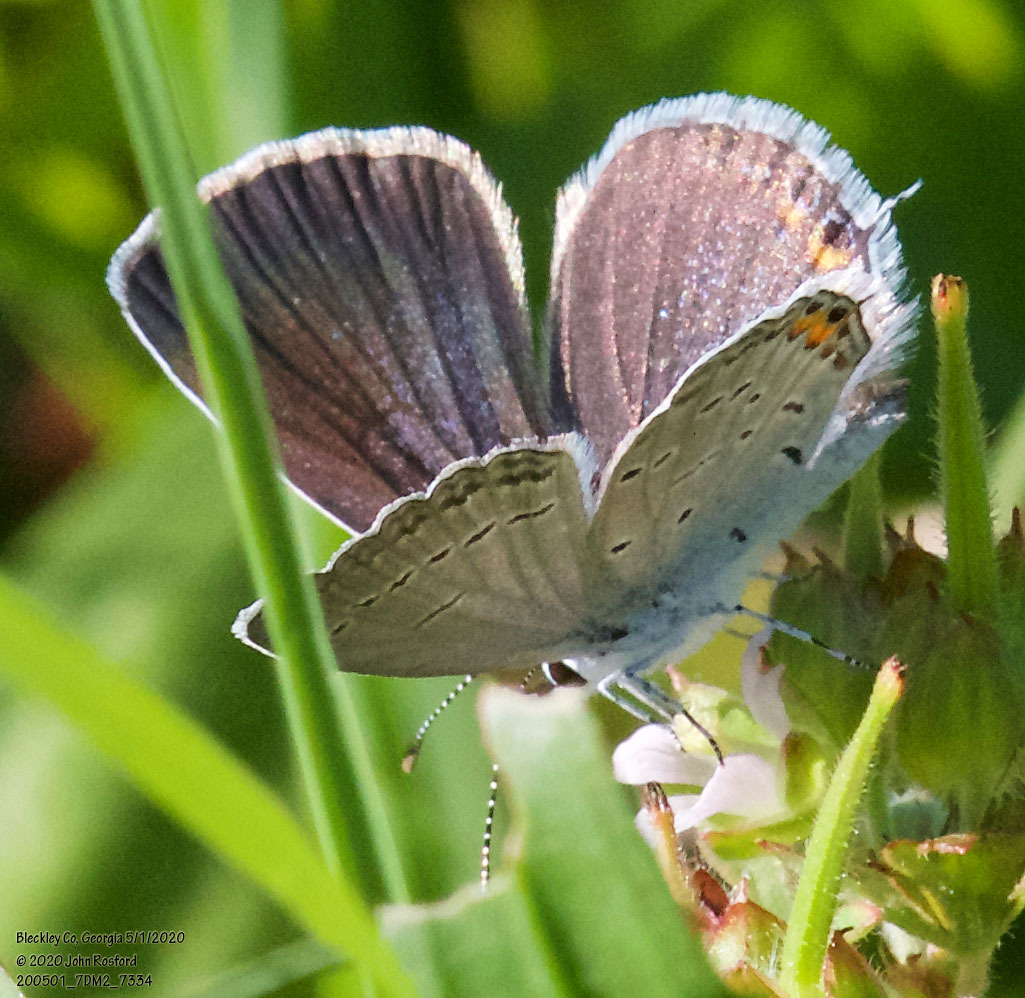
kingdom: Animalia
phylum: Arthropoda
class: Insecta
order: Lepidoptera
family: Lycaenidae
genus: Elkalyce
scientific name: Elkalyce comyntas
